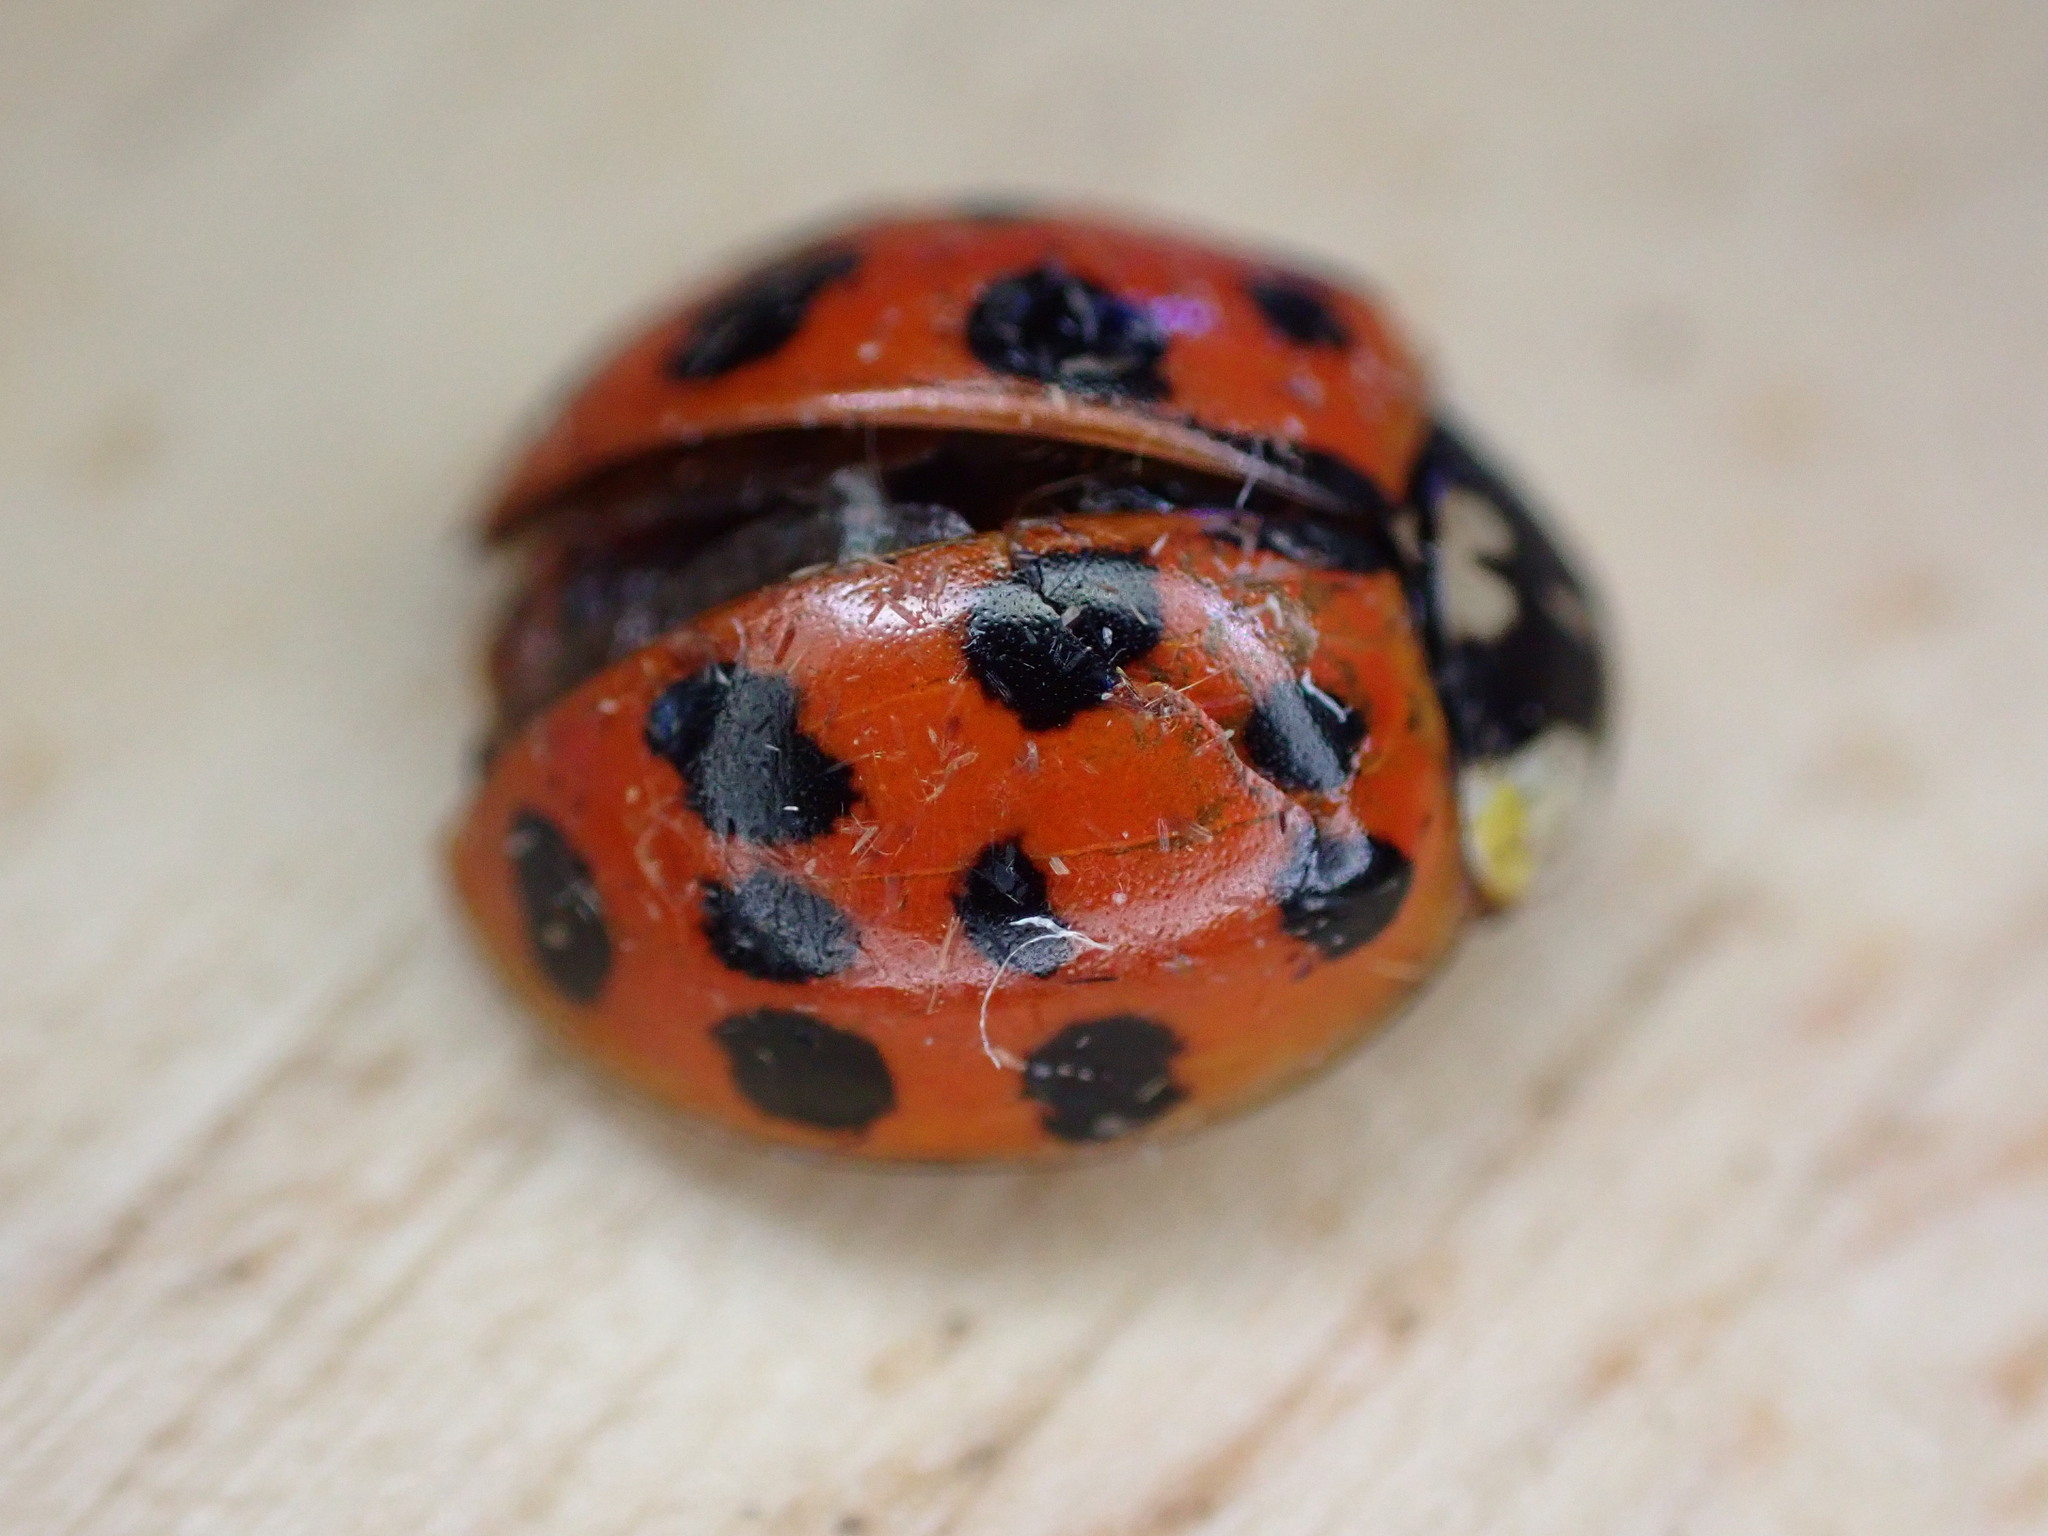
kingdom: Animalia
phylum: Arthropoda
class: Insecta
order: Coleoptera
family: Coccinellidae
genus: Harmonia
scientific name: Harmonia axyridis
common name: Harlequin ladybird
